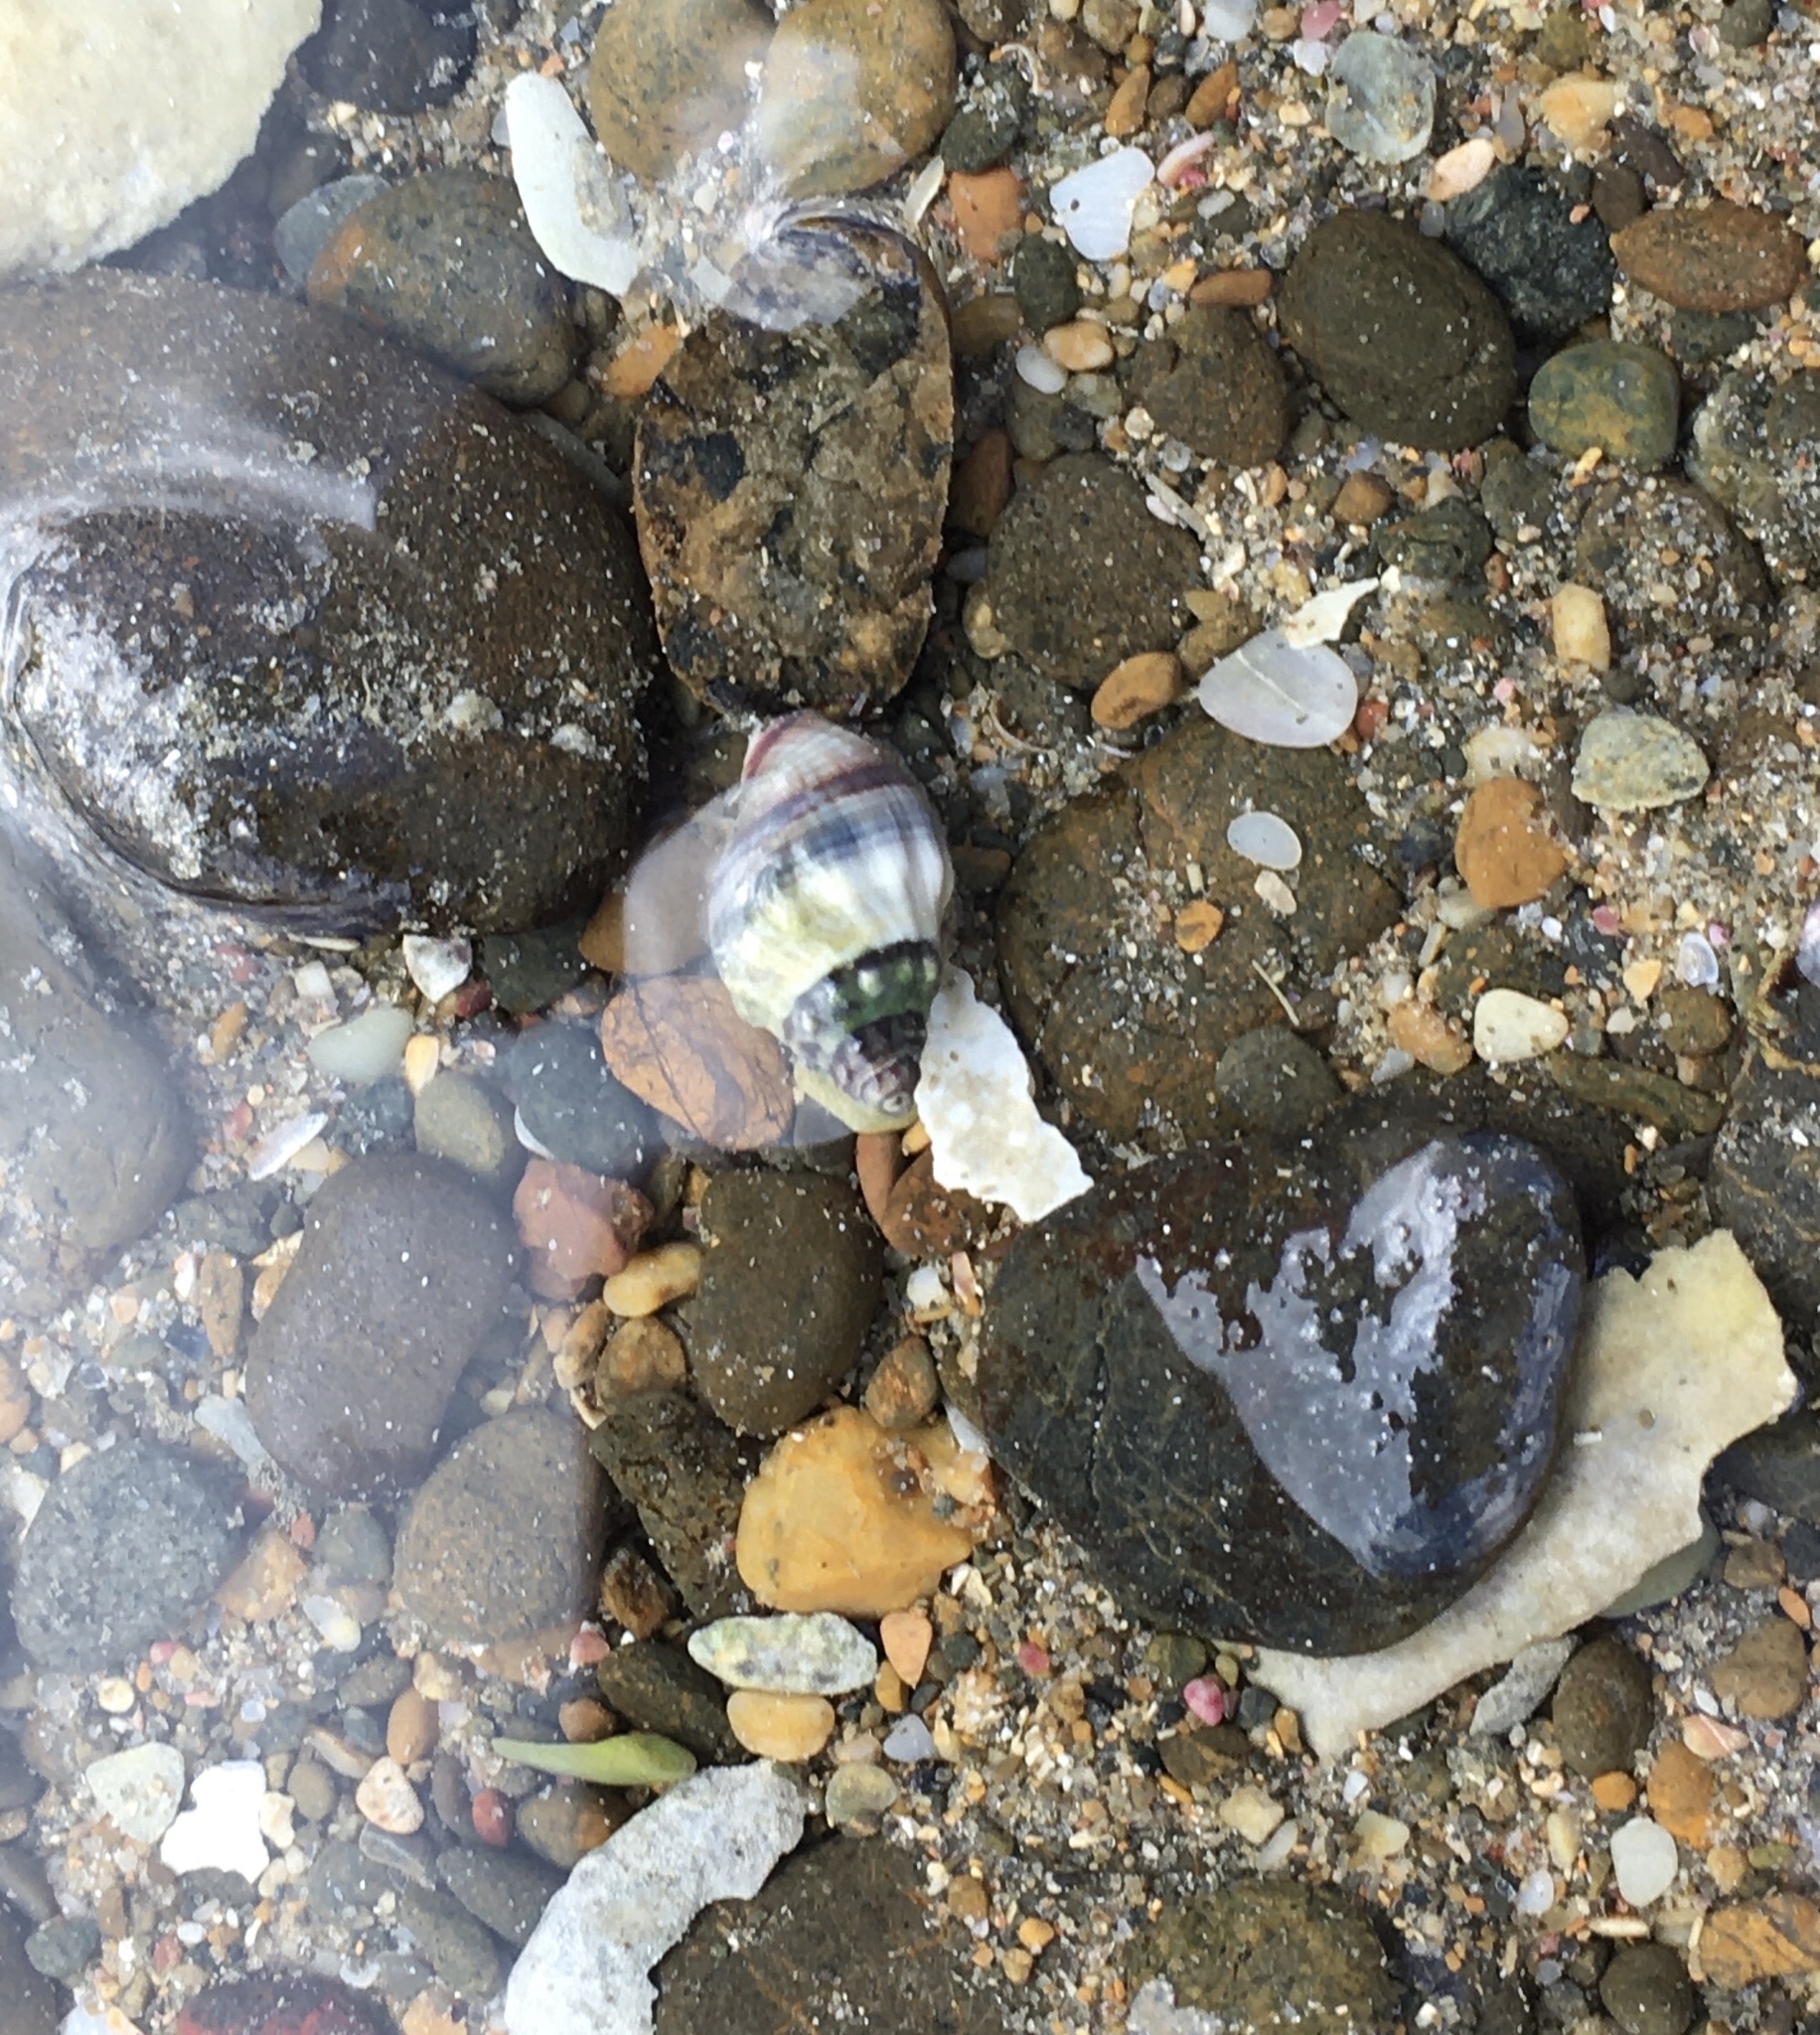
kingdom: Animalia
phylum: Mollusca
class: Gastropoda
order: Neogastropoda
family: Cominellidae
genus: Cominella
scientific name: Cominella glandiformis
